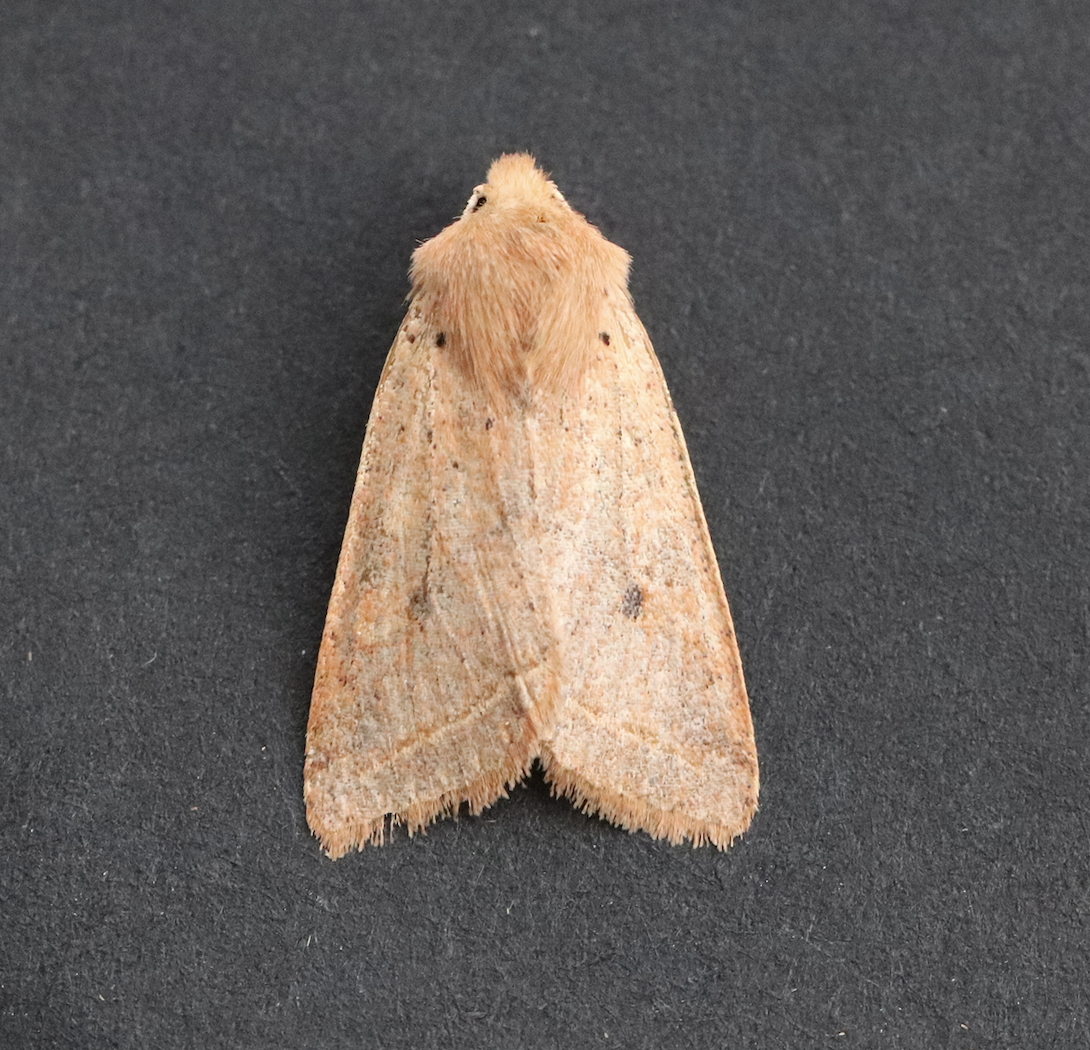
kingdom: Animalia
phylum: Arthropoda
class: Insecta
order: Lepidoptera
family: Noctuidae
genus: Agrochola
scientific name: Agrochola macilenta
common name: Yellow-line quaker
